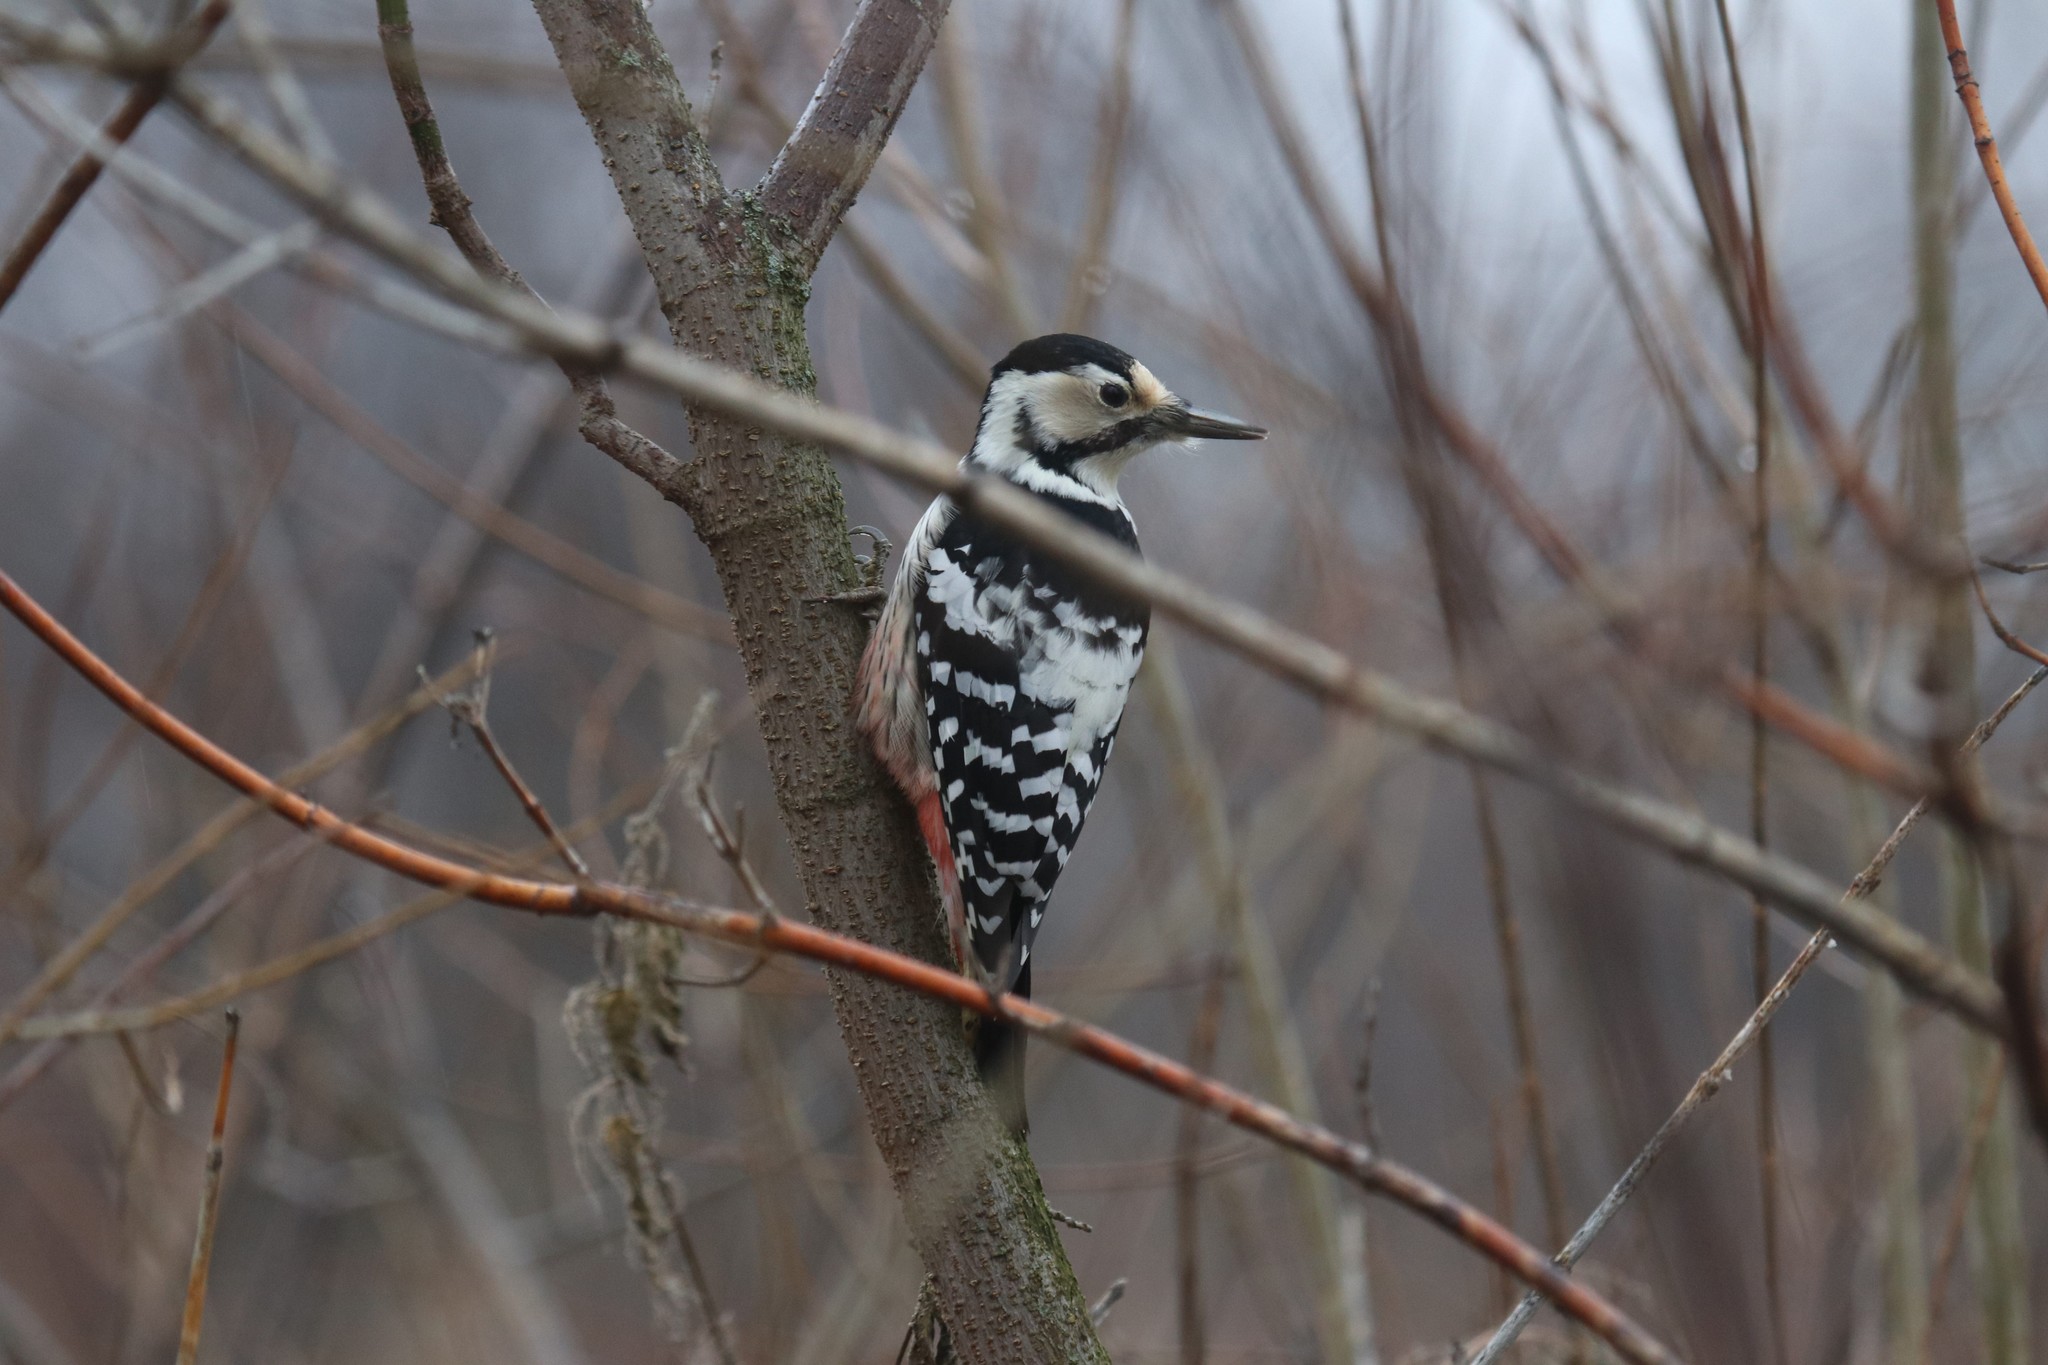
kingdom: Animalia
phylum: Chordata
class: Aves
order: Piciformes
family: Picidae
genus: Dendrocopos
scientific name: Dendrocopos leucotos
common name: White-backed woodpecker
